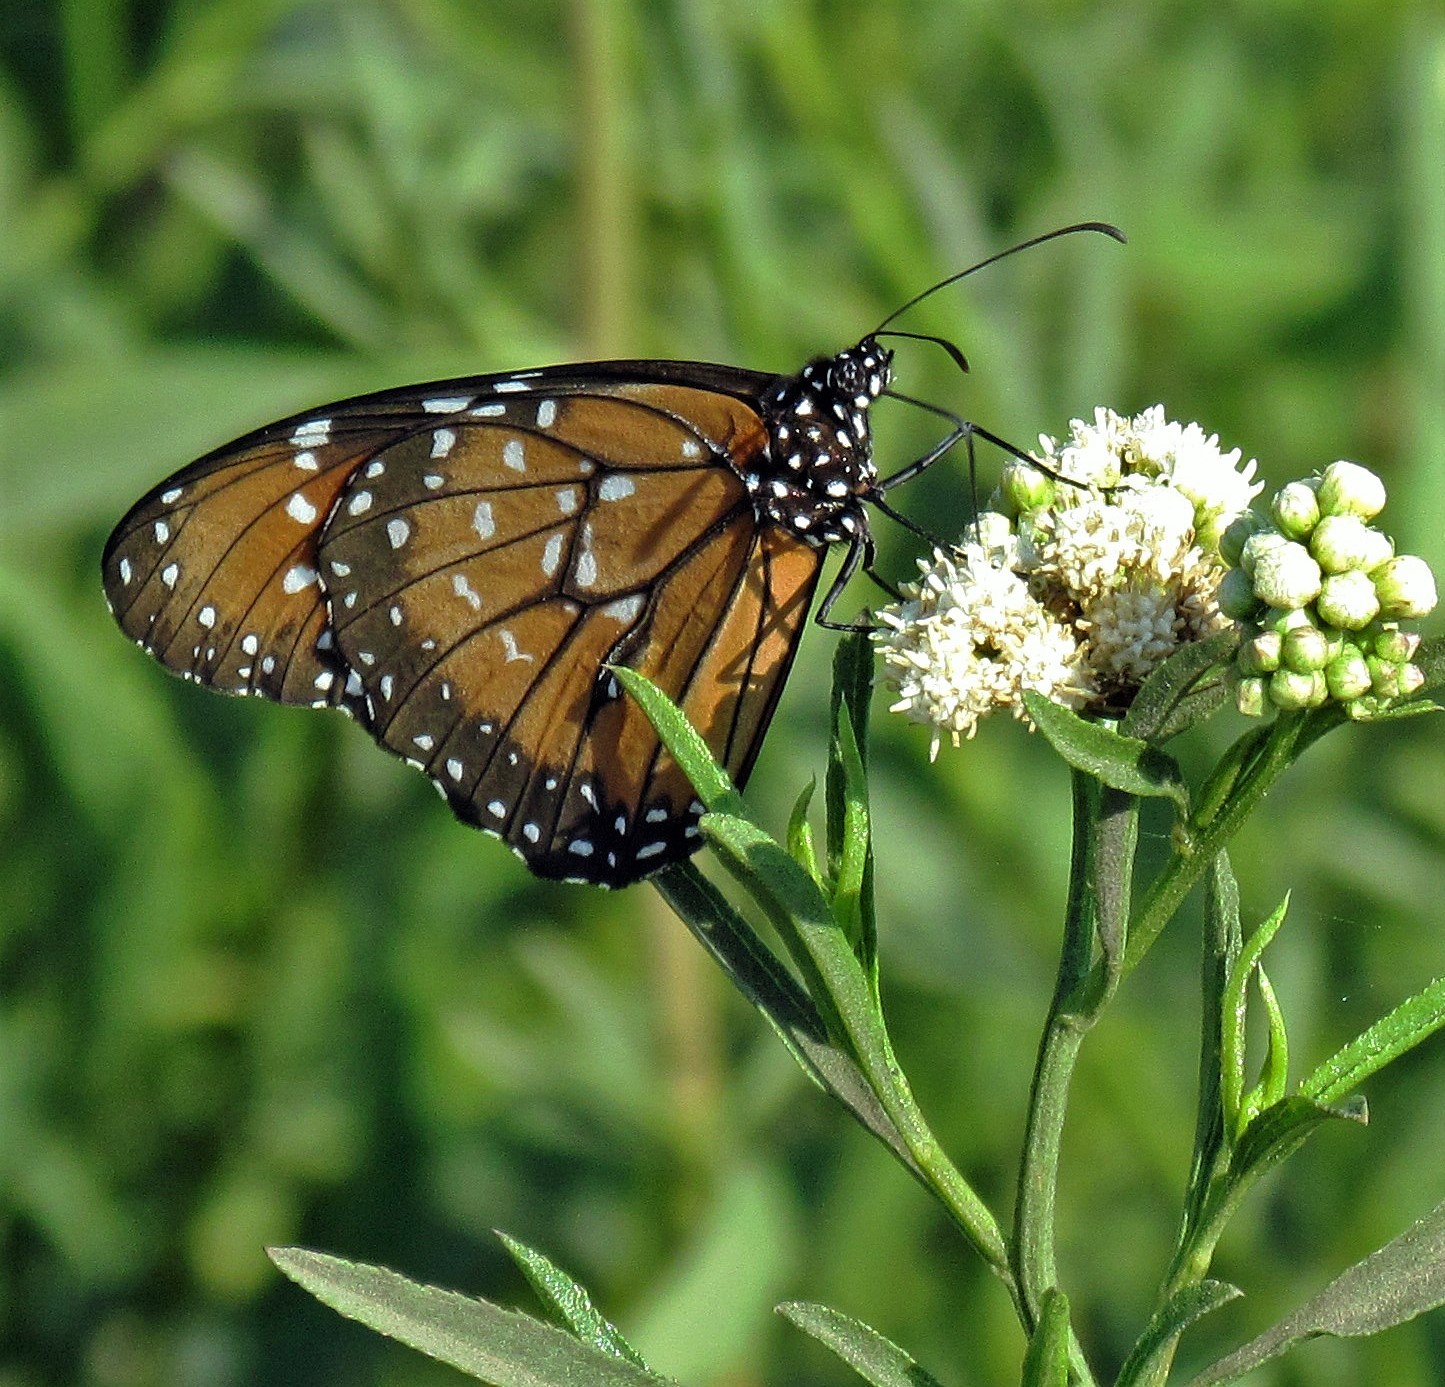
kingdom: Animalia
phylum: Arthropoda
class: Insecta
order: Lepidoptera
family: Nymphalidae
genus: Danaus
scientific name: Danaus eresimus
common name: Soldier
